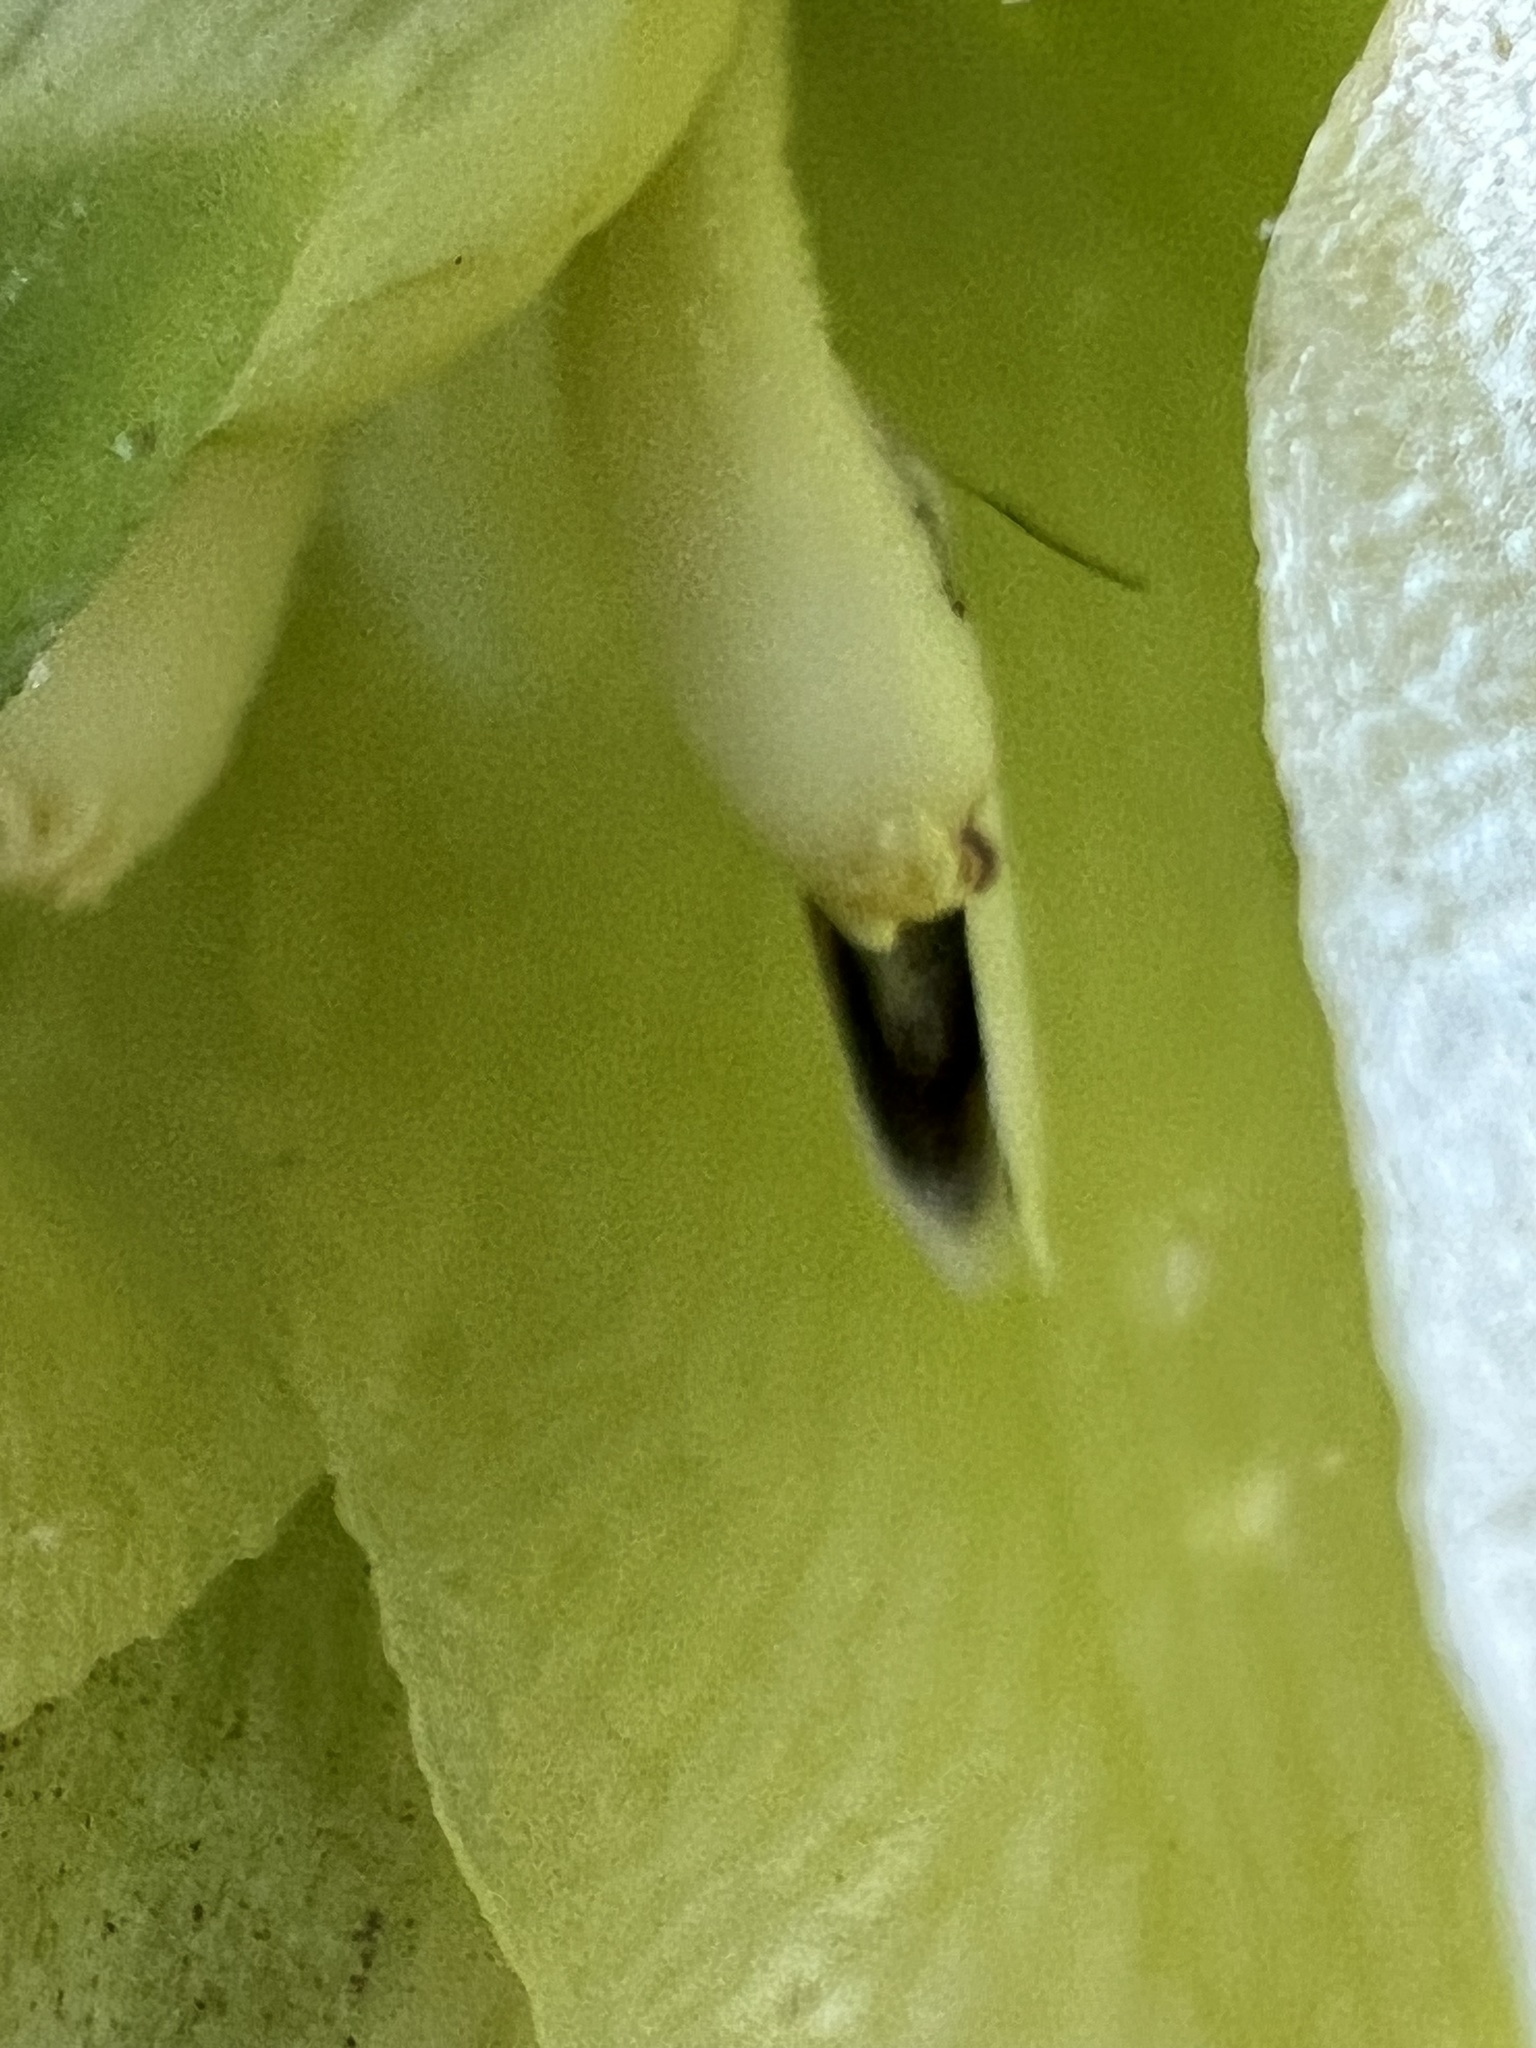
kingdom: Animalia
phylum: Arthropoda
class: Insecta
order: Lepidoptera
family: Prodoxidae
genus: Prodoxus
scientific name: Prodoxus quinquepunctella
